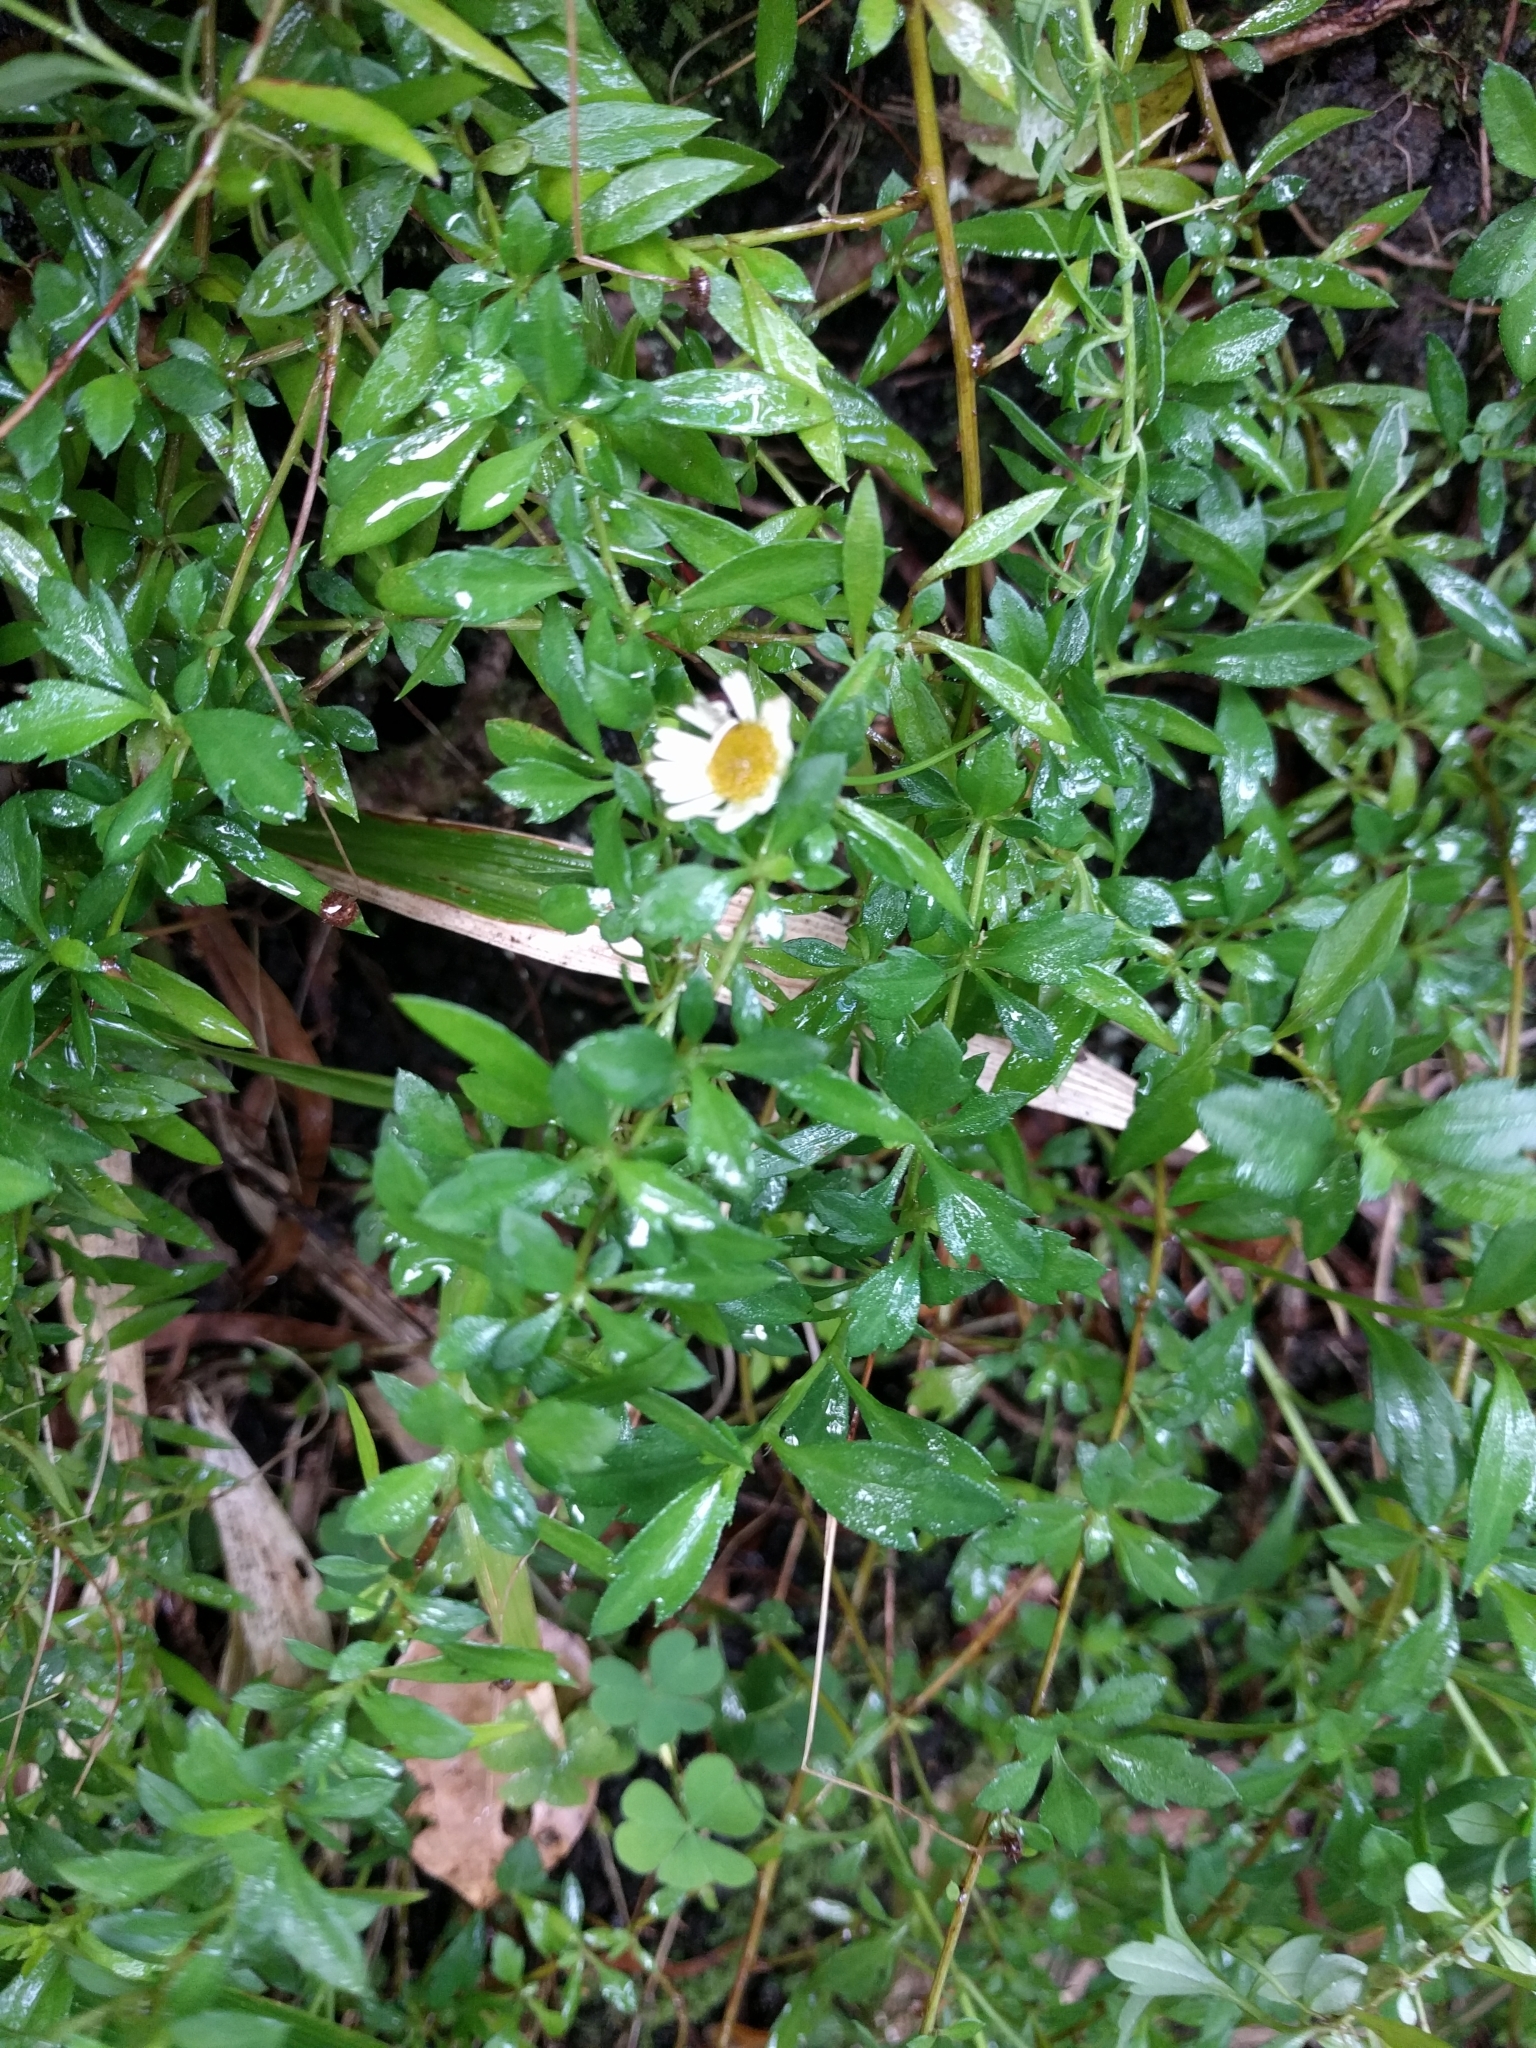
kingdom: Plantae
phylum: Tracheophyta
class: Magnoliopsida
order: Asterales
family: Asteraceae
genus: Erigeron
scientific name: Erigeron karvinskianus
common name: Mexican fleabane
